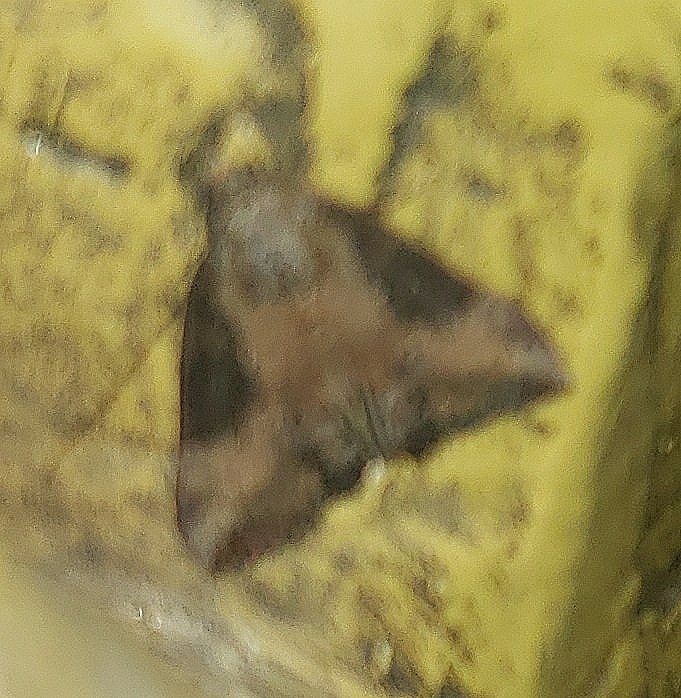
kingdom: Animalia
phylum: Arthropoda
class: Insecta
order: Lepidoptera
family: Erebidae
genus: Hypena
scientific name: Hypena scabra
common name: Green cloverworm
